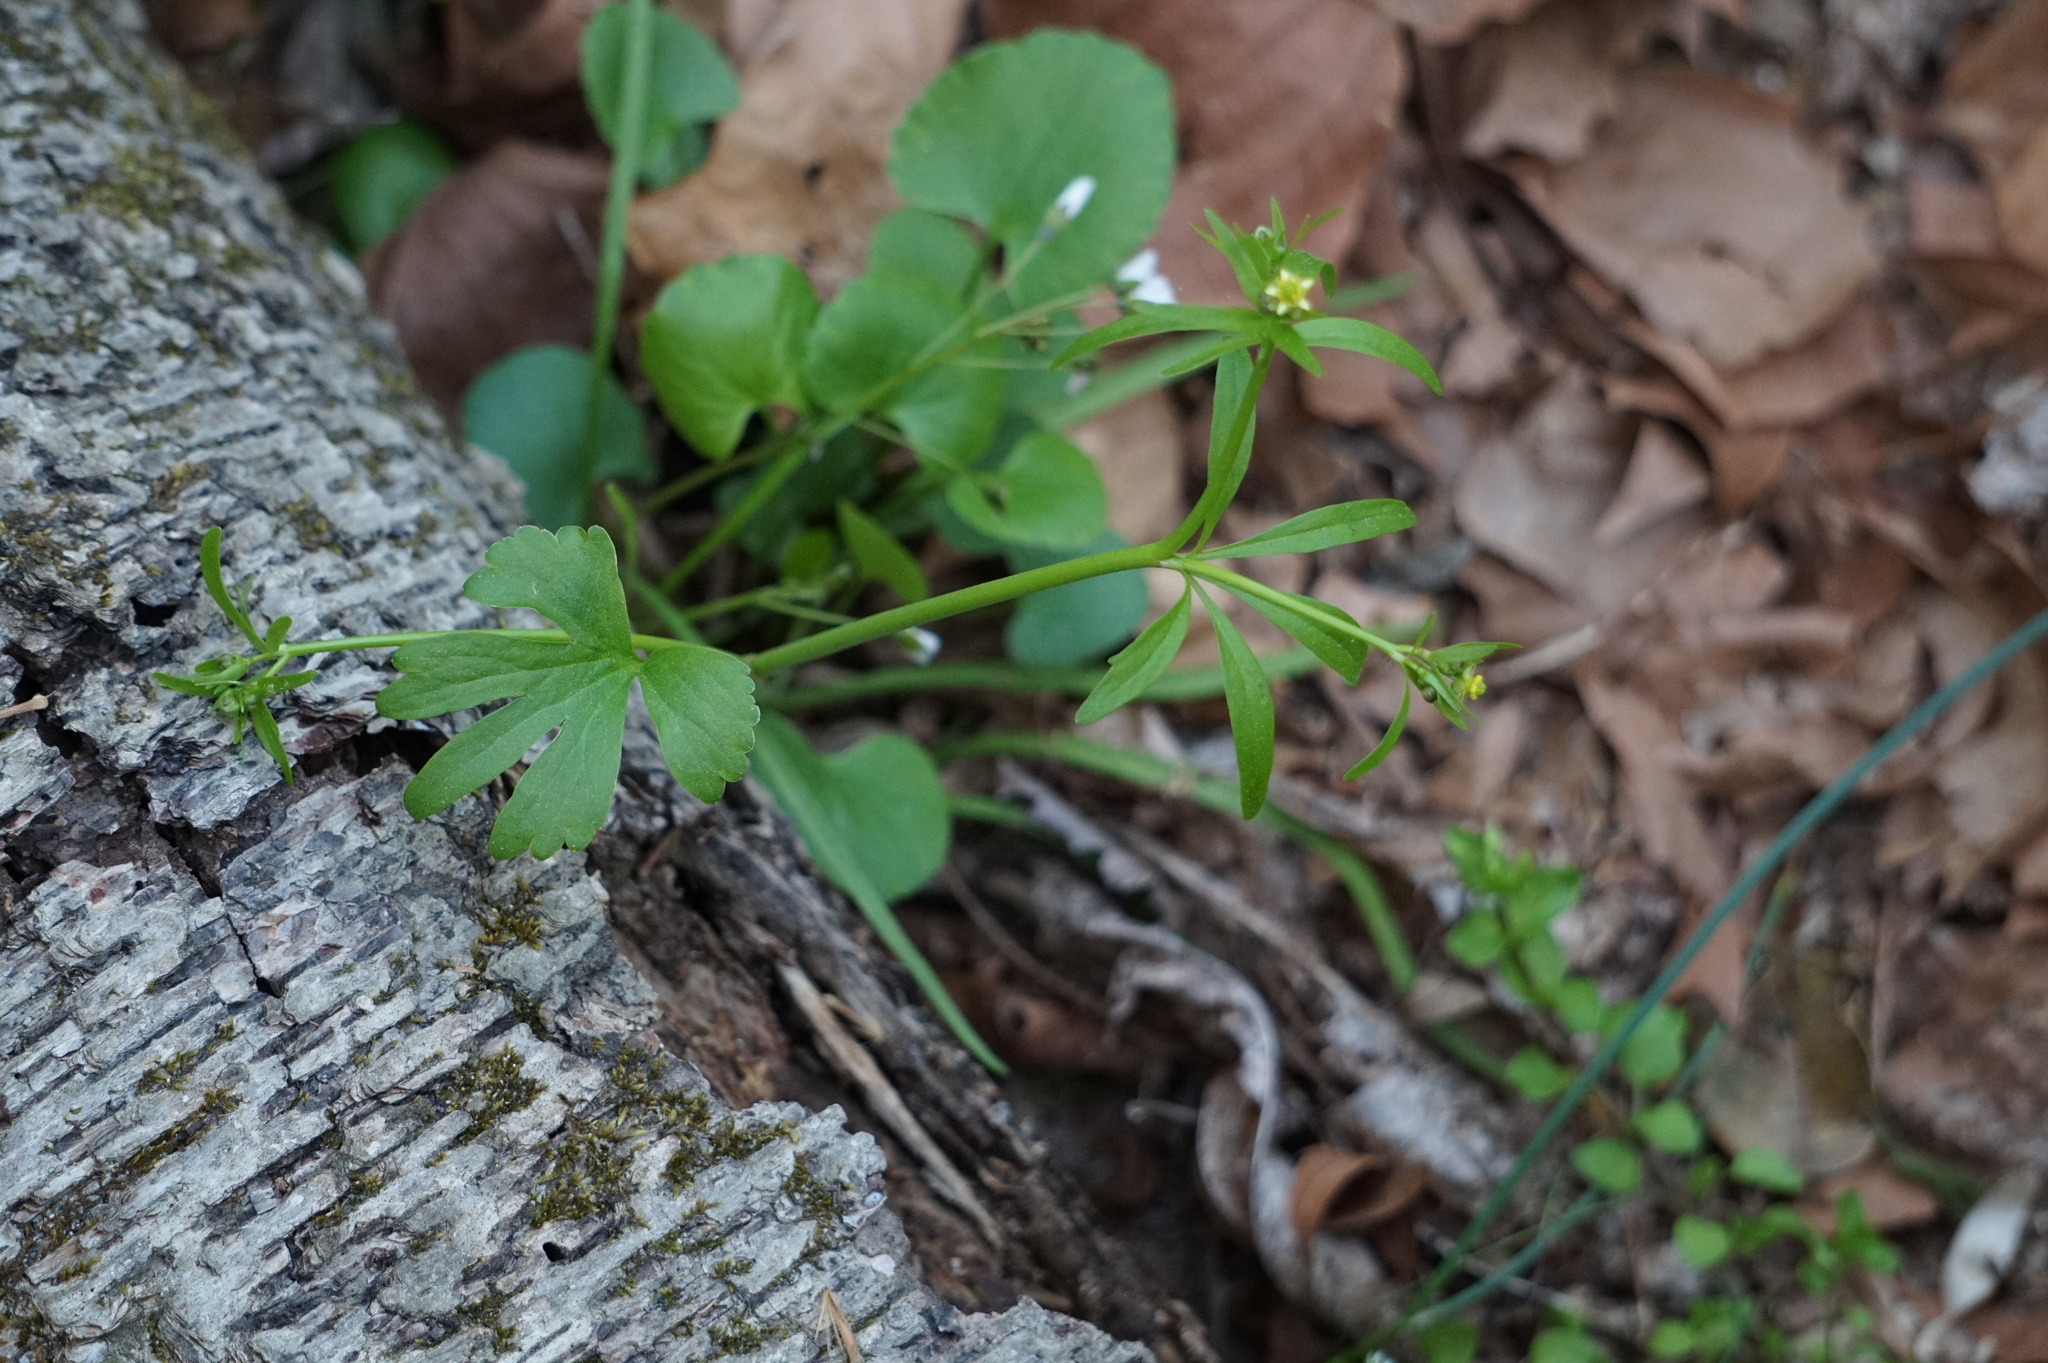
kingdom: Plantae
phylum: Tracheophyta
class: Magnoliopsida
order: Ranunculales
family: Ranunculaceae
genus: Ranunculus
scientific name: Ranunculus abortivus
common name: Early wood buttercup
